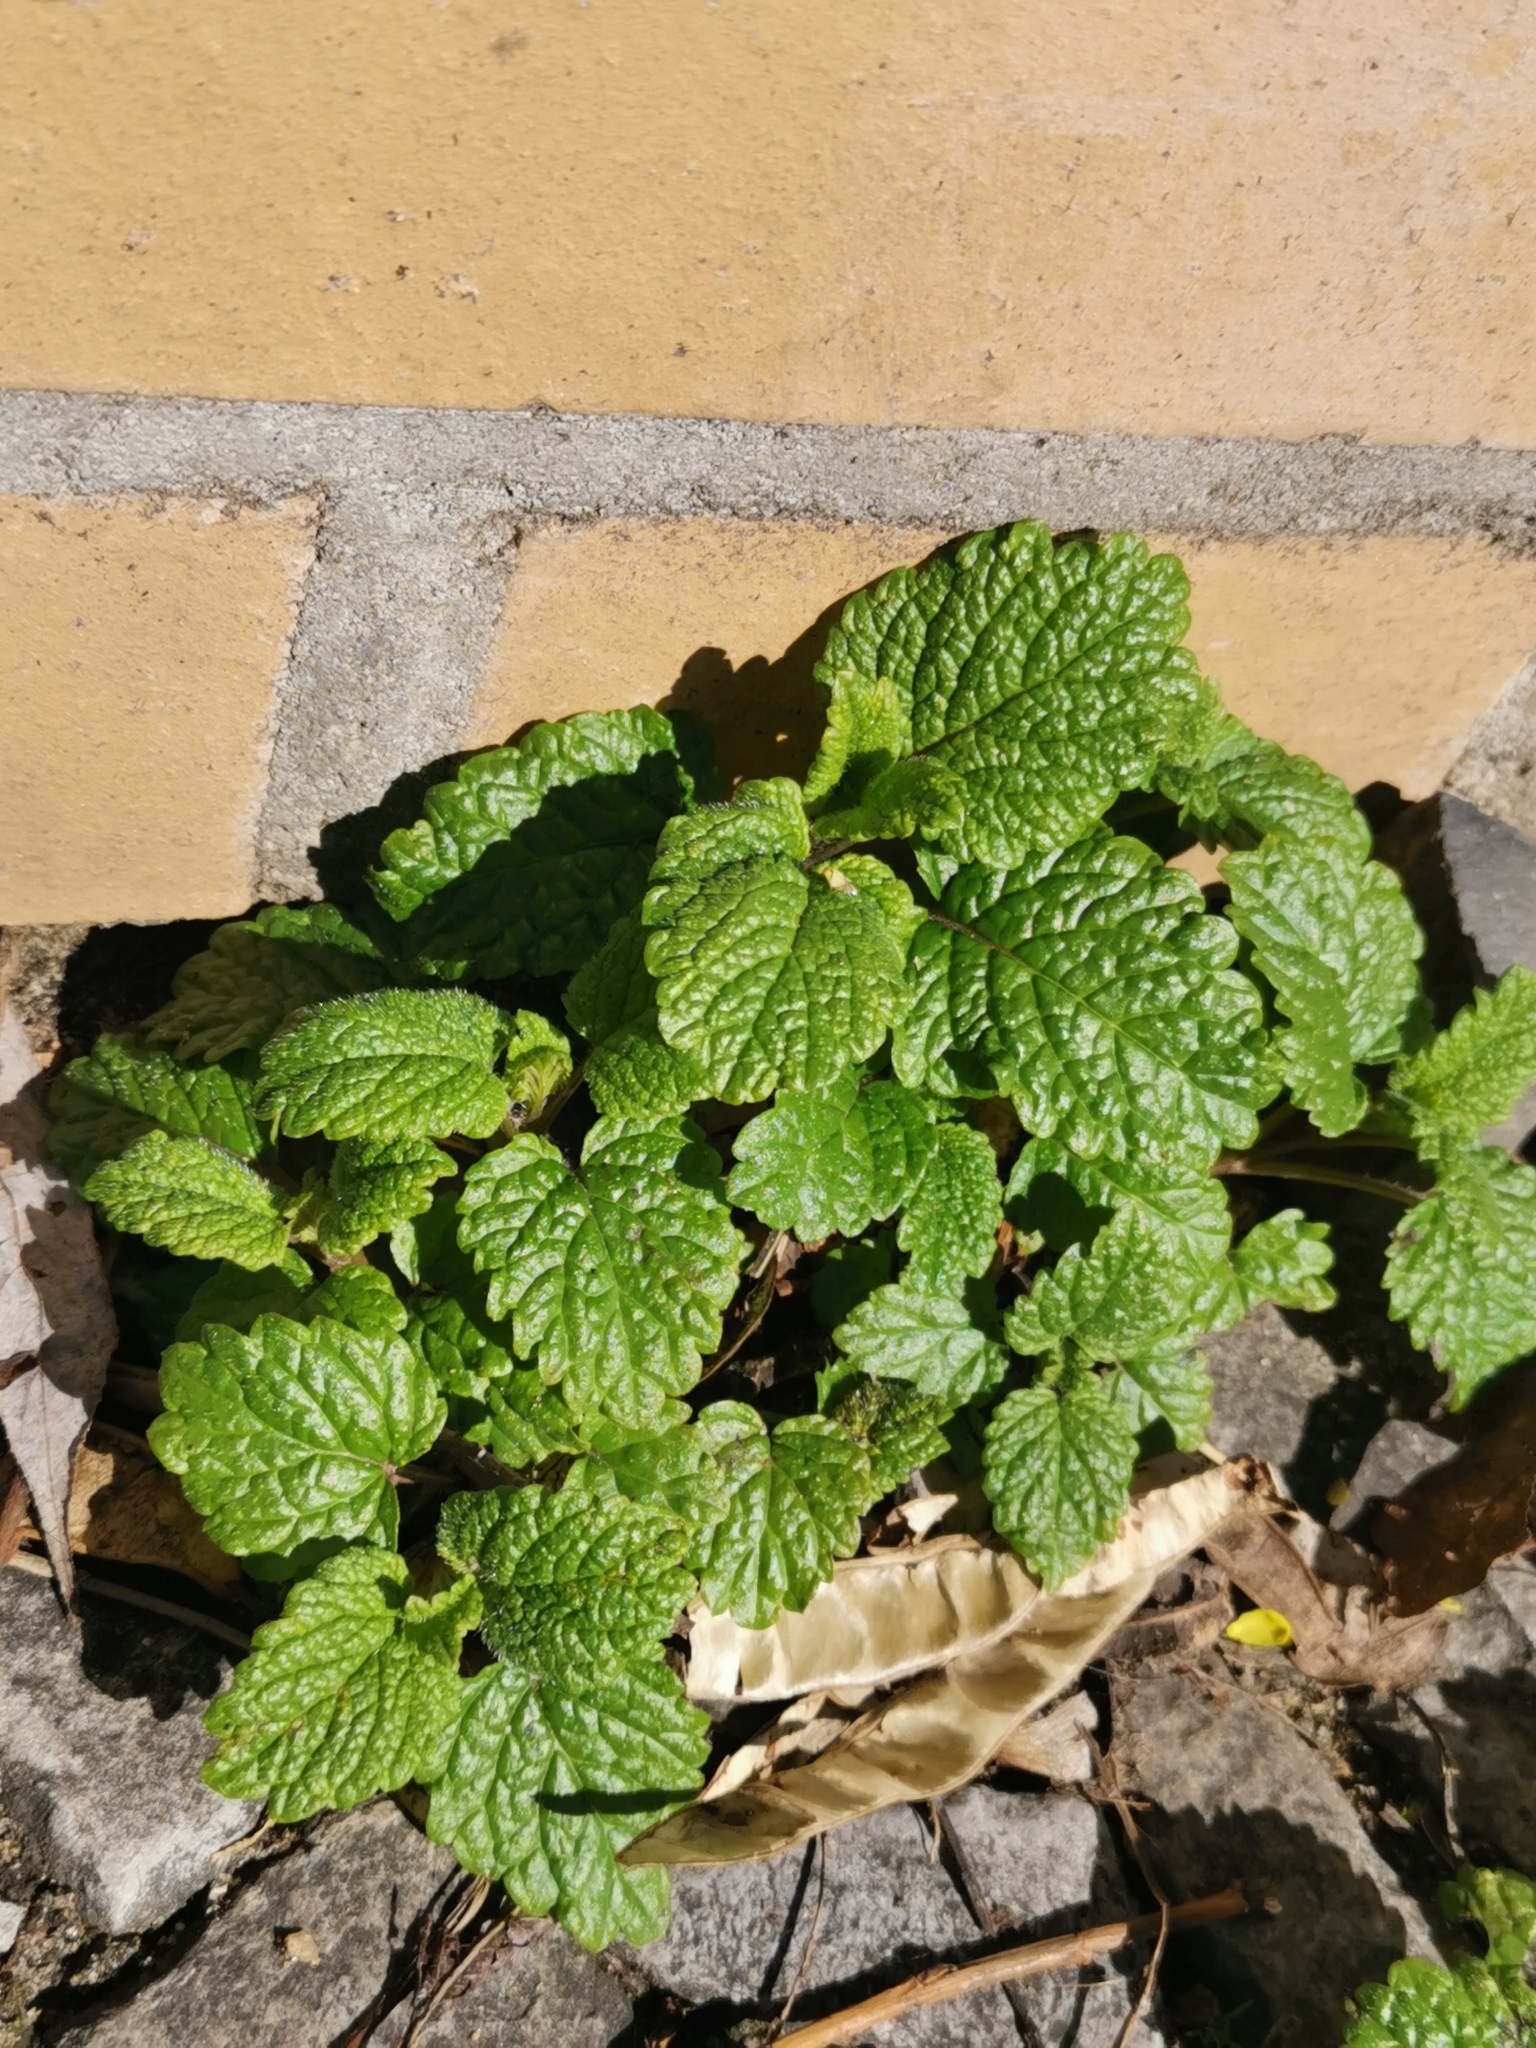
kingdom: Plantae
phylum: Tracheophyta
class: Magnoliopsida
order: Lamiales
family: Lamiaceae
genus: Melissa
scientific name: Melissa officinalis
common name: Balm
